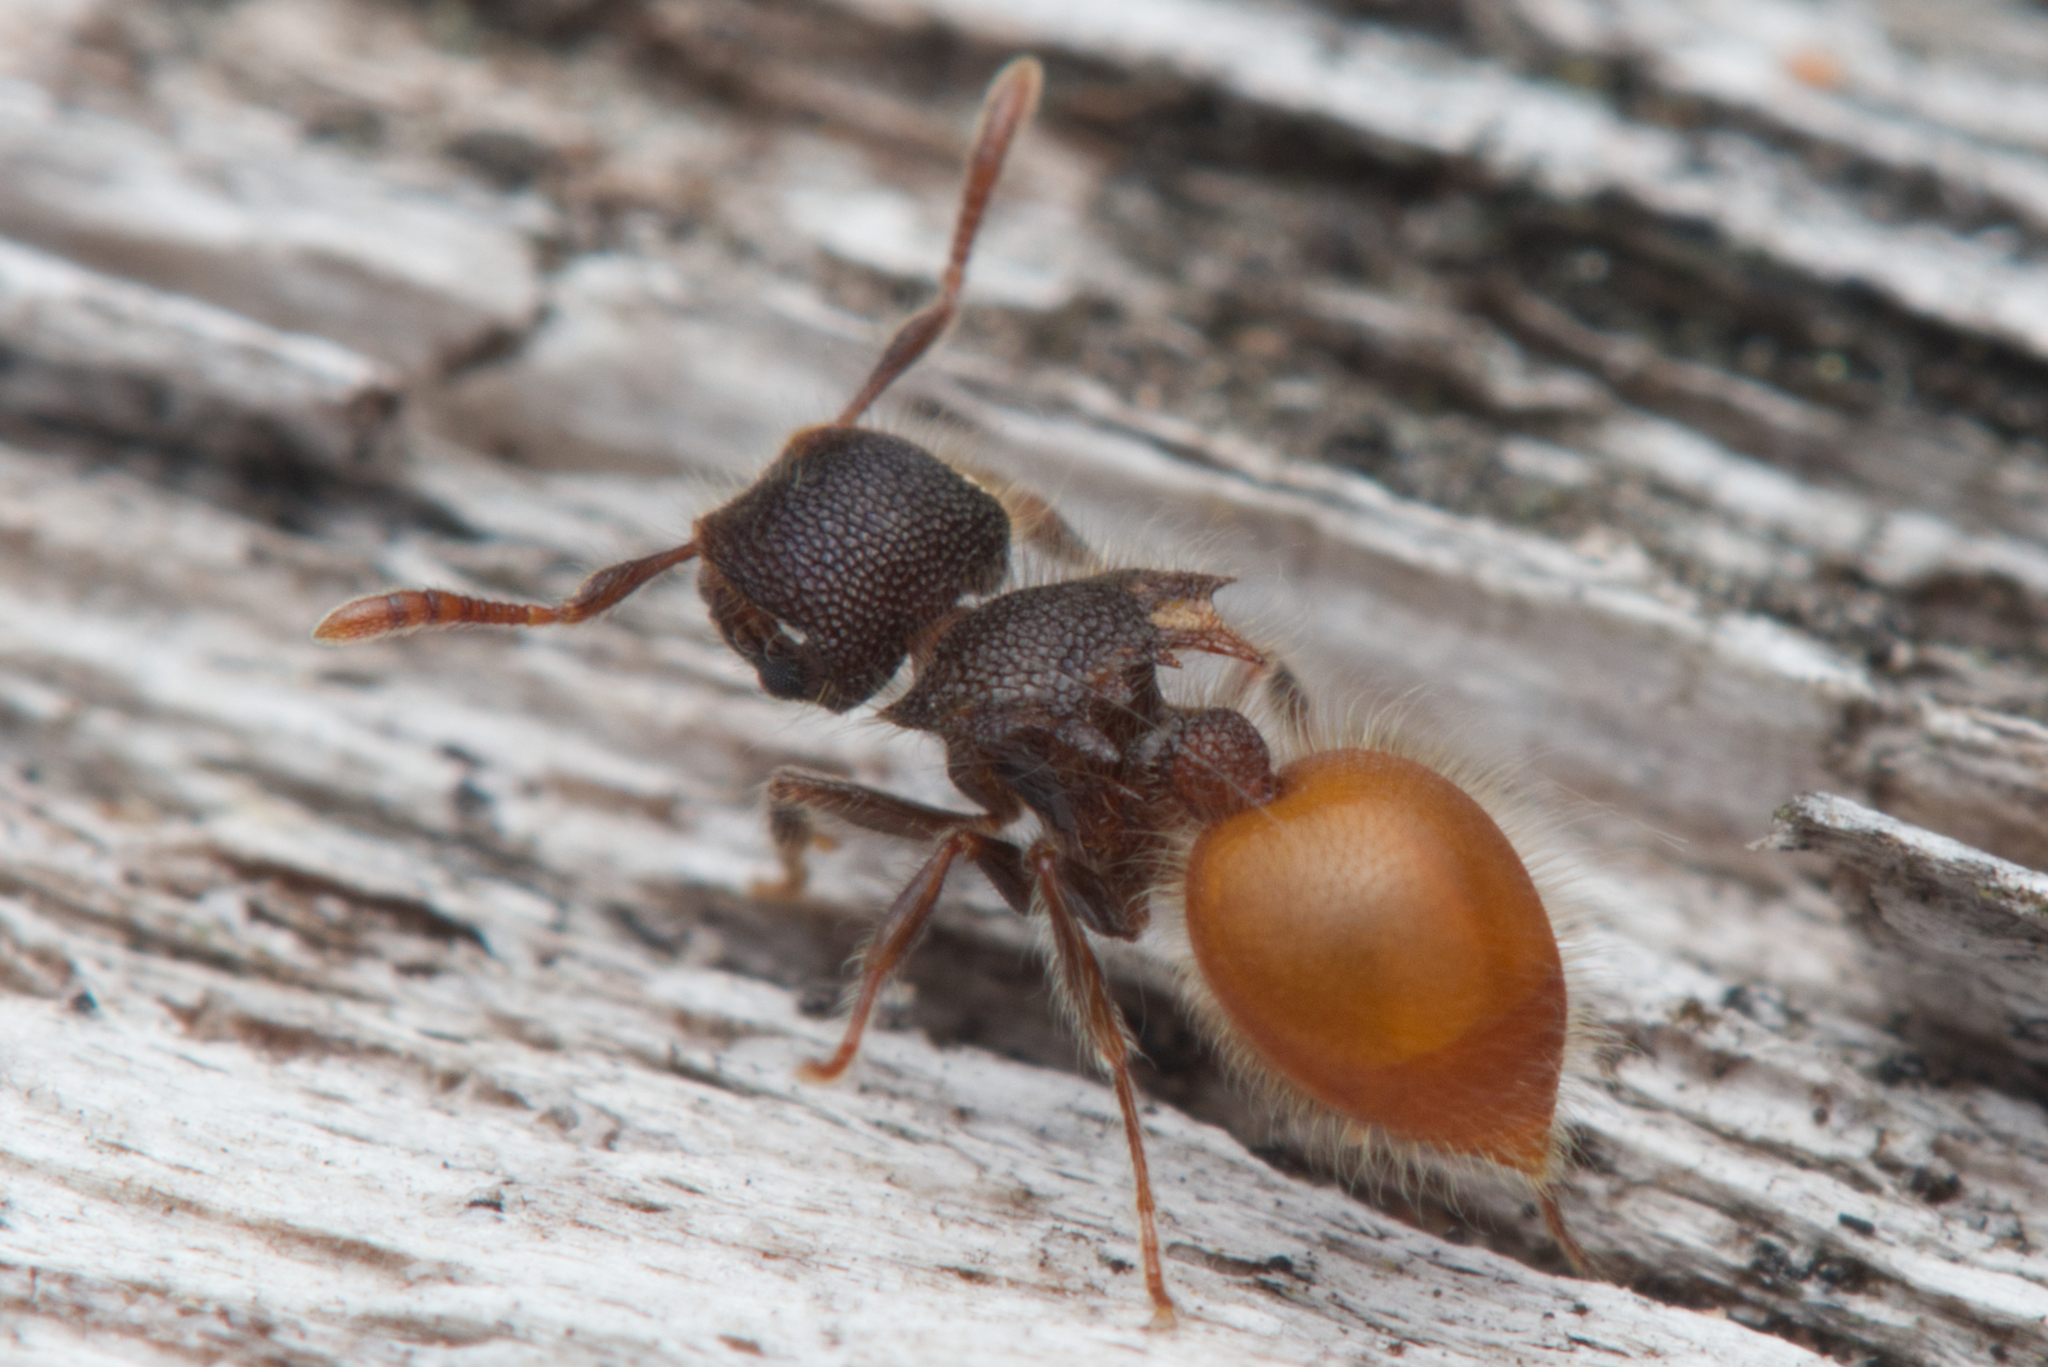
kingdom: Animalia
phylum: Arthropoda
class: Insecta
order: Hymenoptera
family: Formicidae
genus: Meranoplus
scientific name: Meranoplus hirsutus
